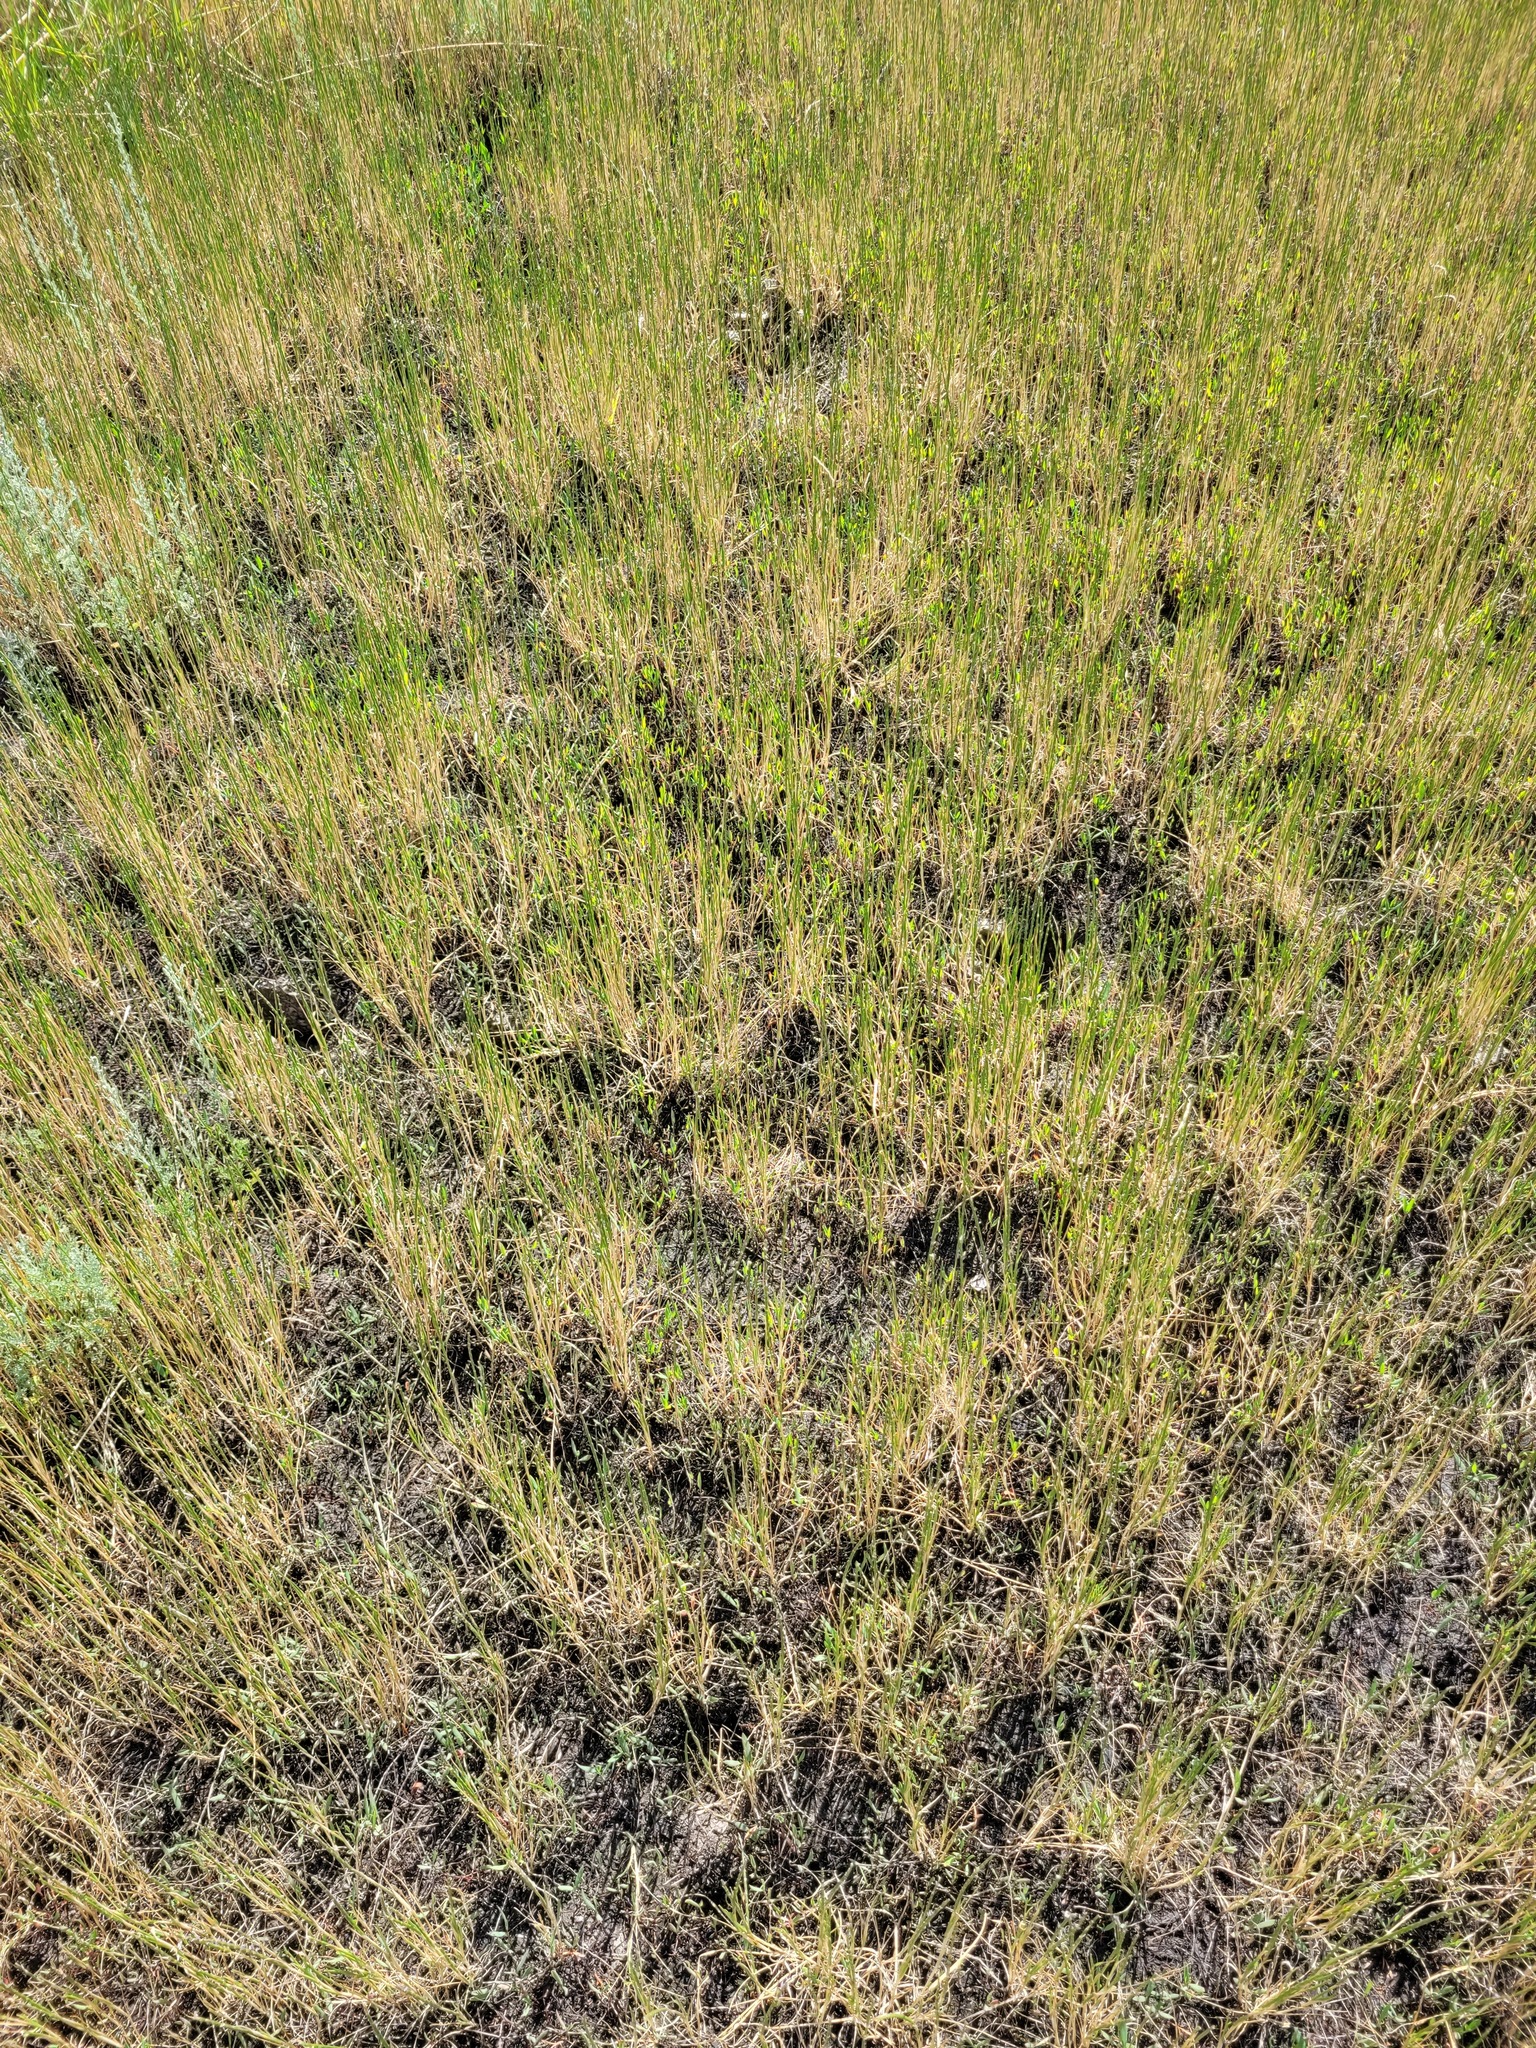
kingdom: Plantae
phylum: Tracheophyta
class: Liliopsida
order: Poales
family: Poaceae
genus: Pholiurus
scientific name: Pholiurus pannonicus
